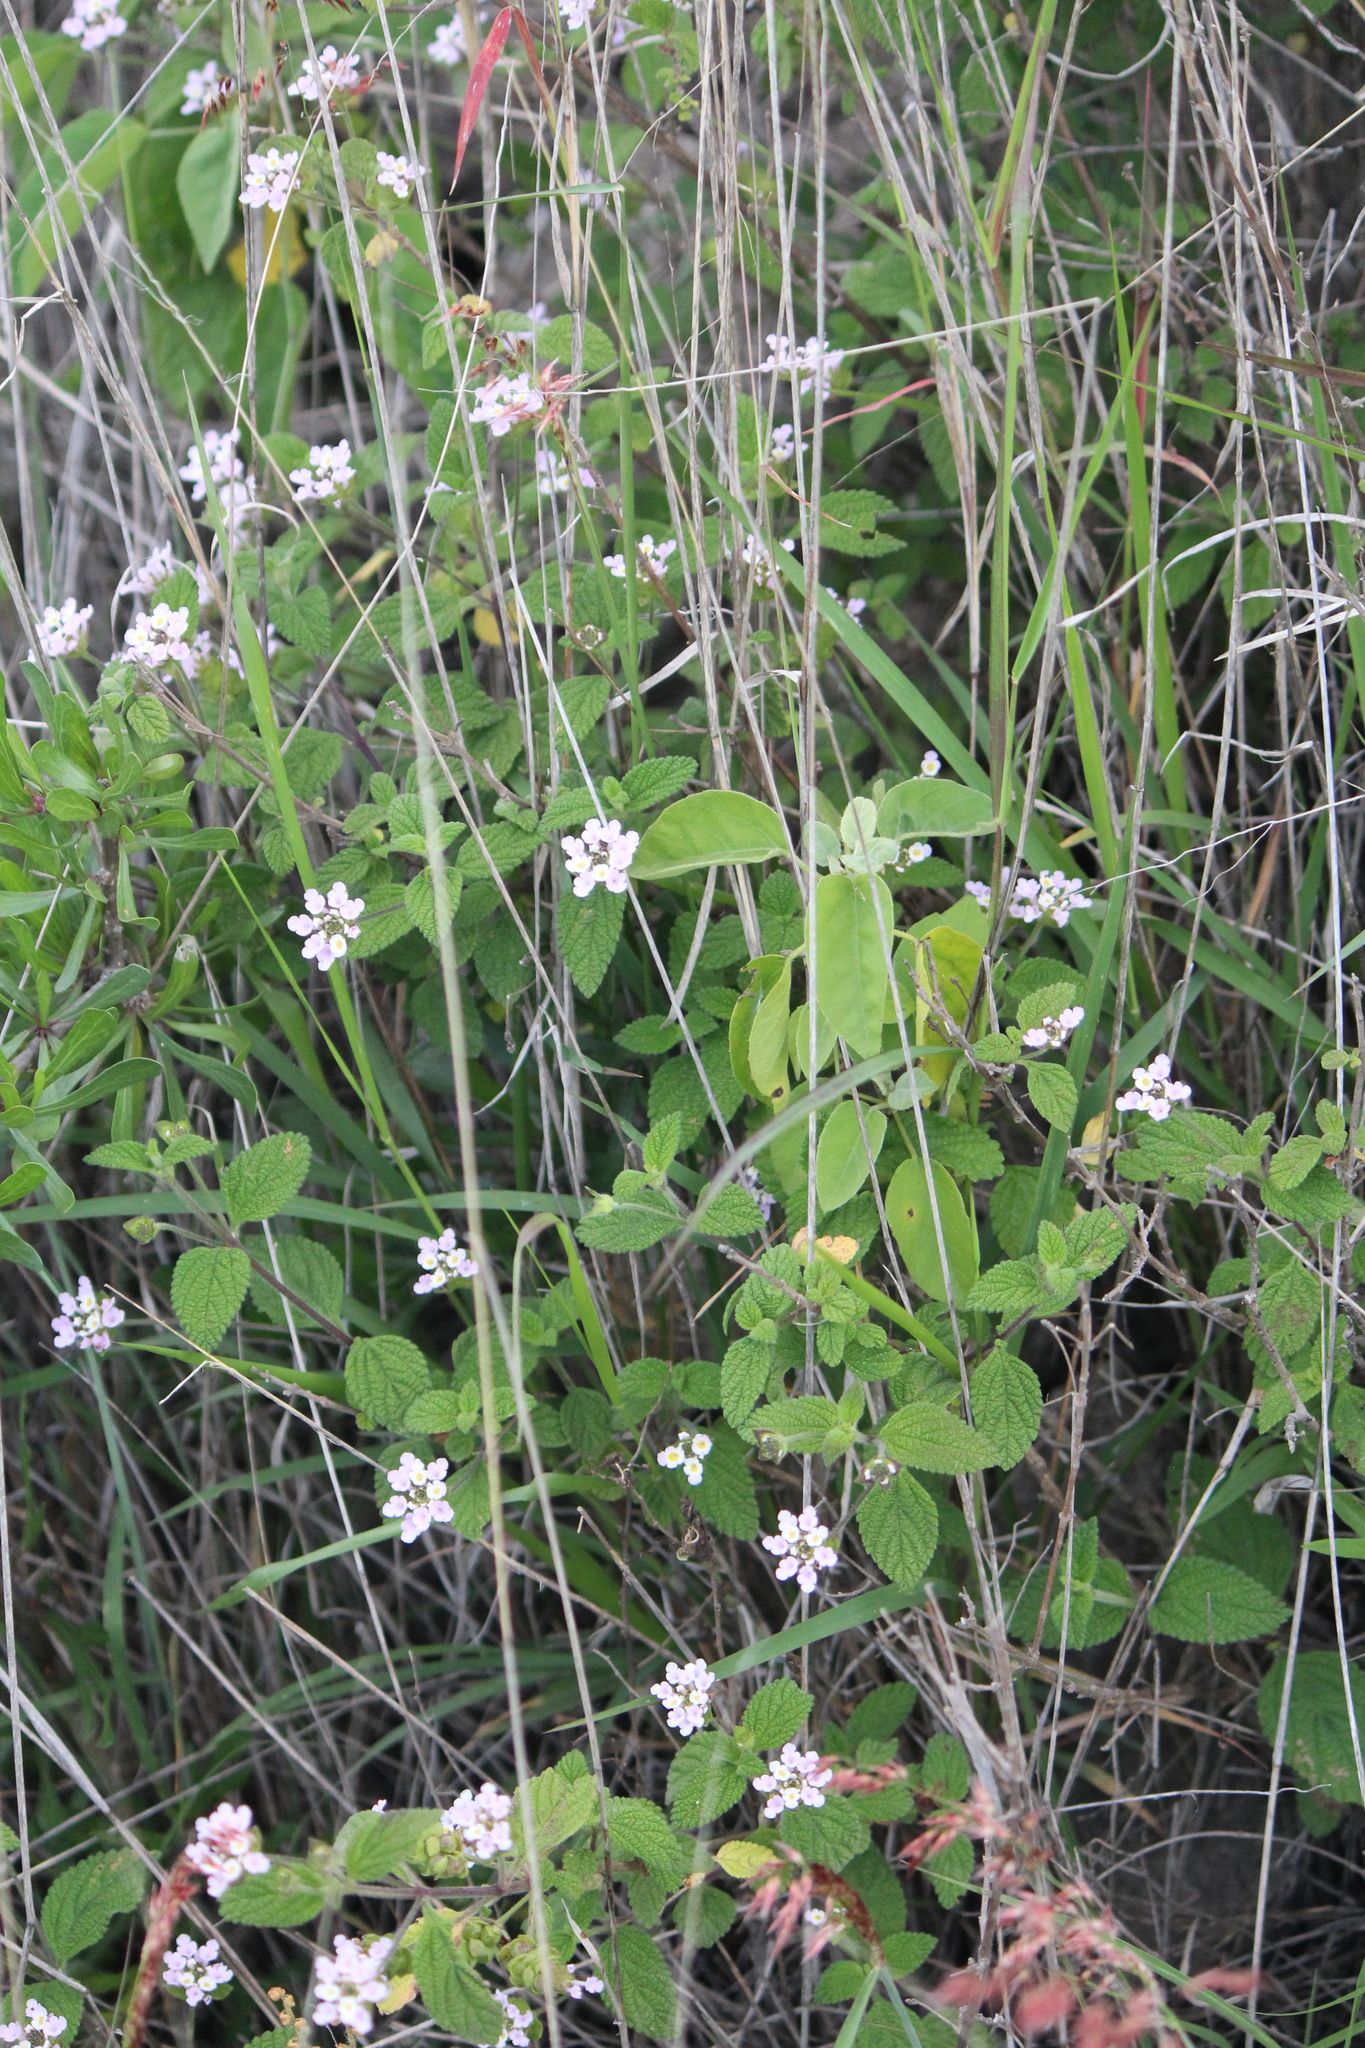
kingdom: Plantae
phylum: Tracheophyta
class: Magnoliopsida
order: Lamiales
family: Verbenaceae
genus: Lantana
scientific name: Lantana velutina
